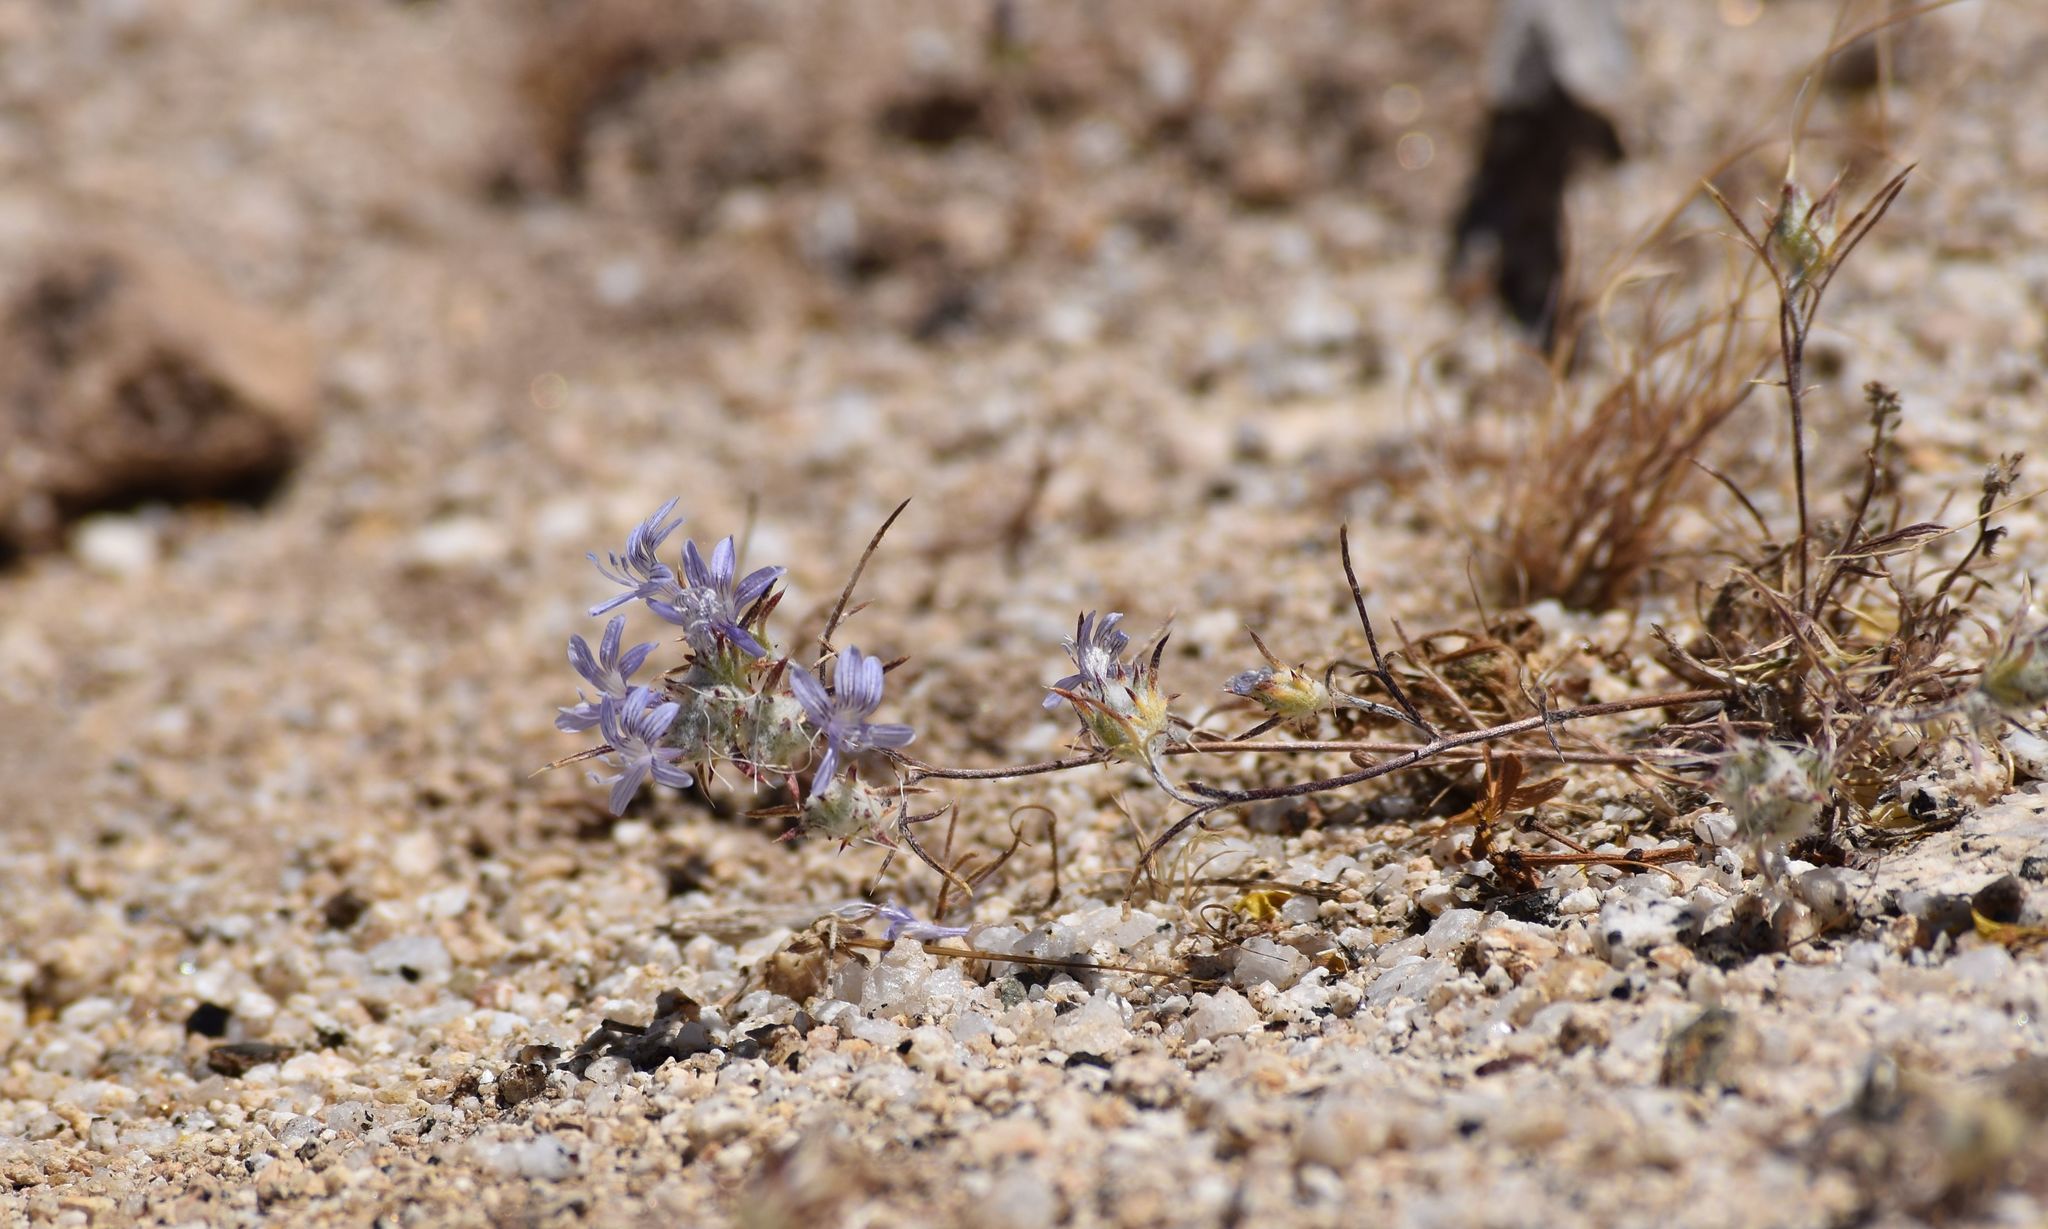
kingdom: Plantae
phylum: Tracheophyta
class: Magnoliopsida
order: Ericales
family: Polemoniaceae
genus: Eriastrum
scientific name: Eriastrum eremicum
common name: Desert eriastrum
